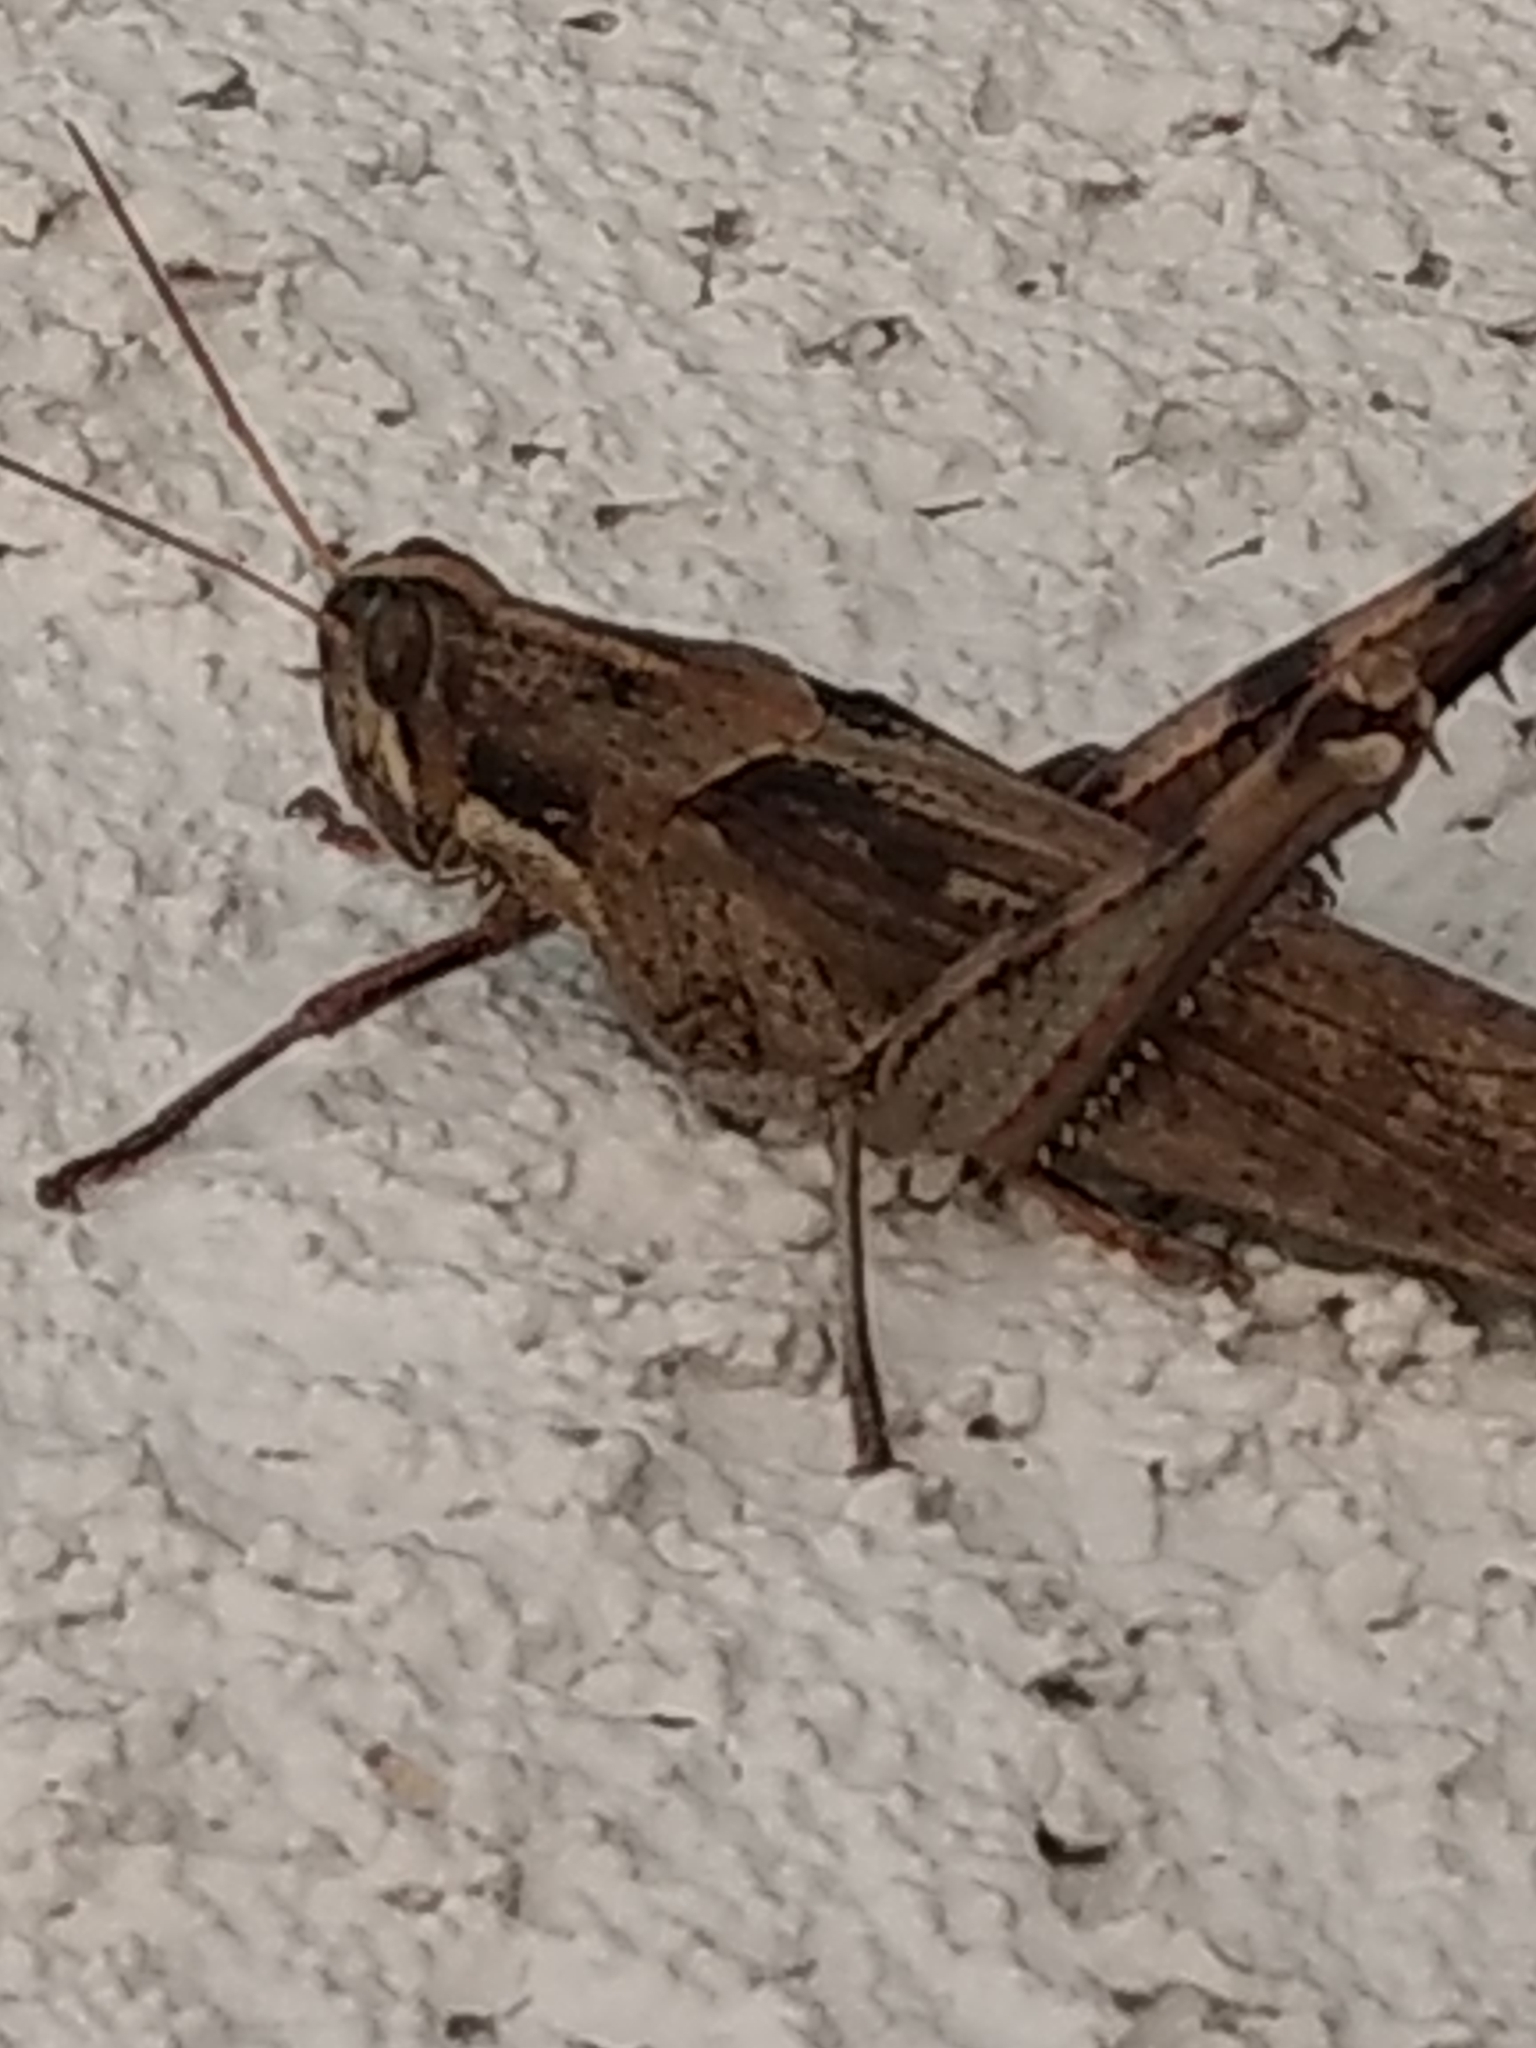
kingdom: Animalia
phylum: Arthropoda
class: Insecta
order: Orthoptera
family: Acrididae
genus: Schistocerca
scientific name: Schistocerca nitens
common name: Vagrant grasshopper
